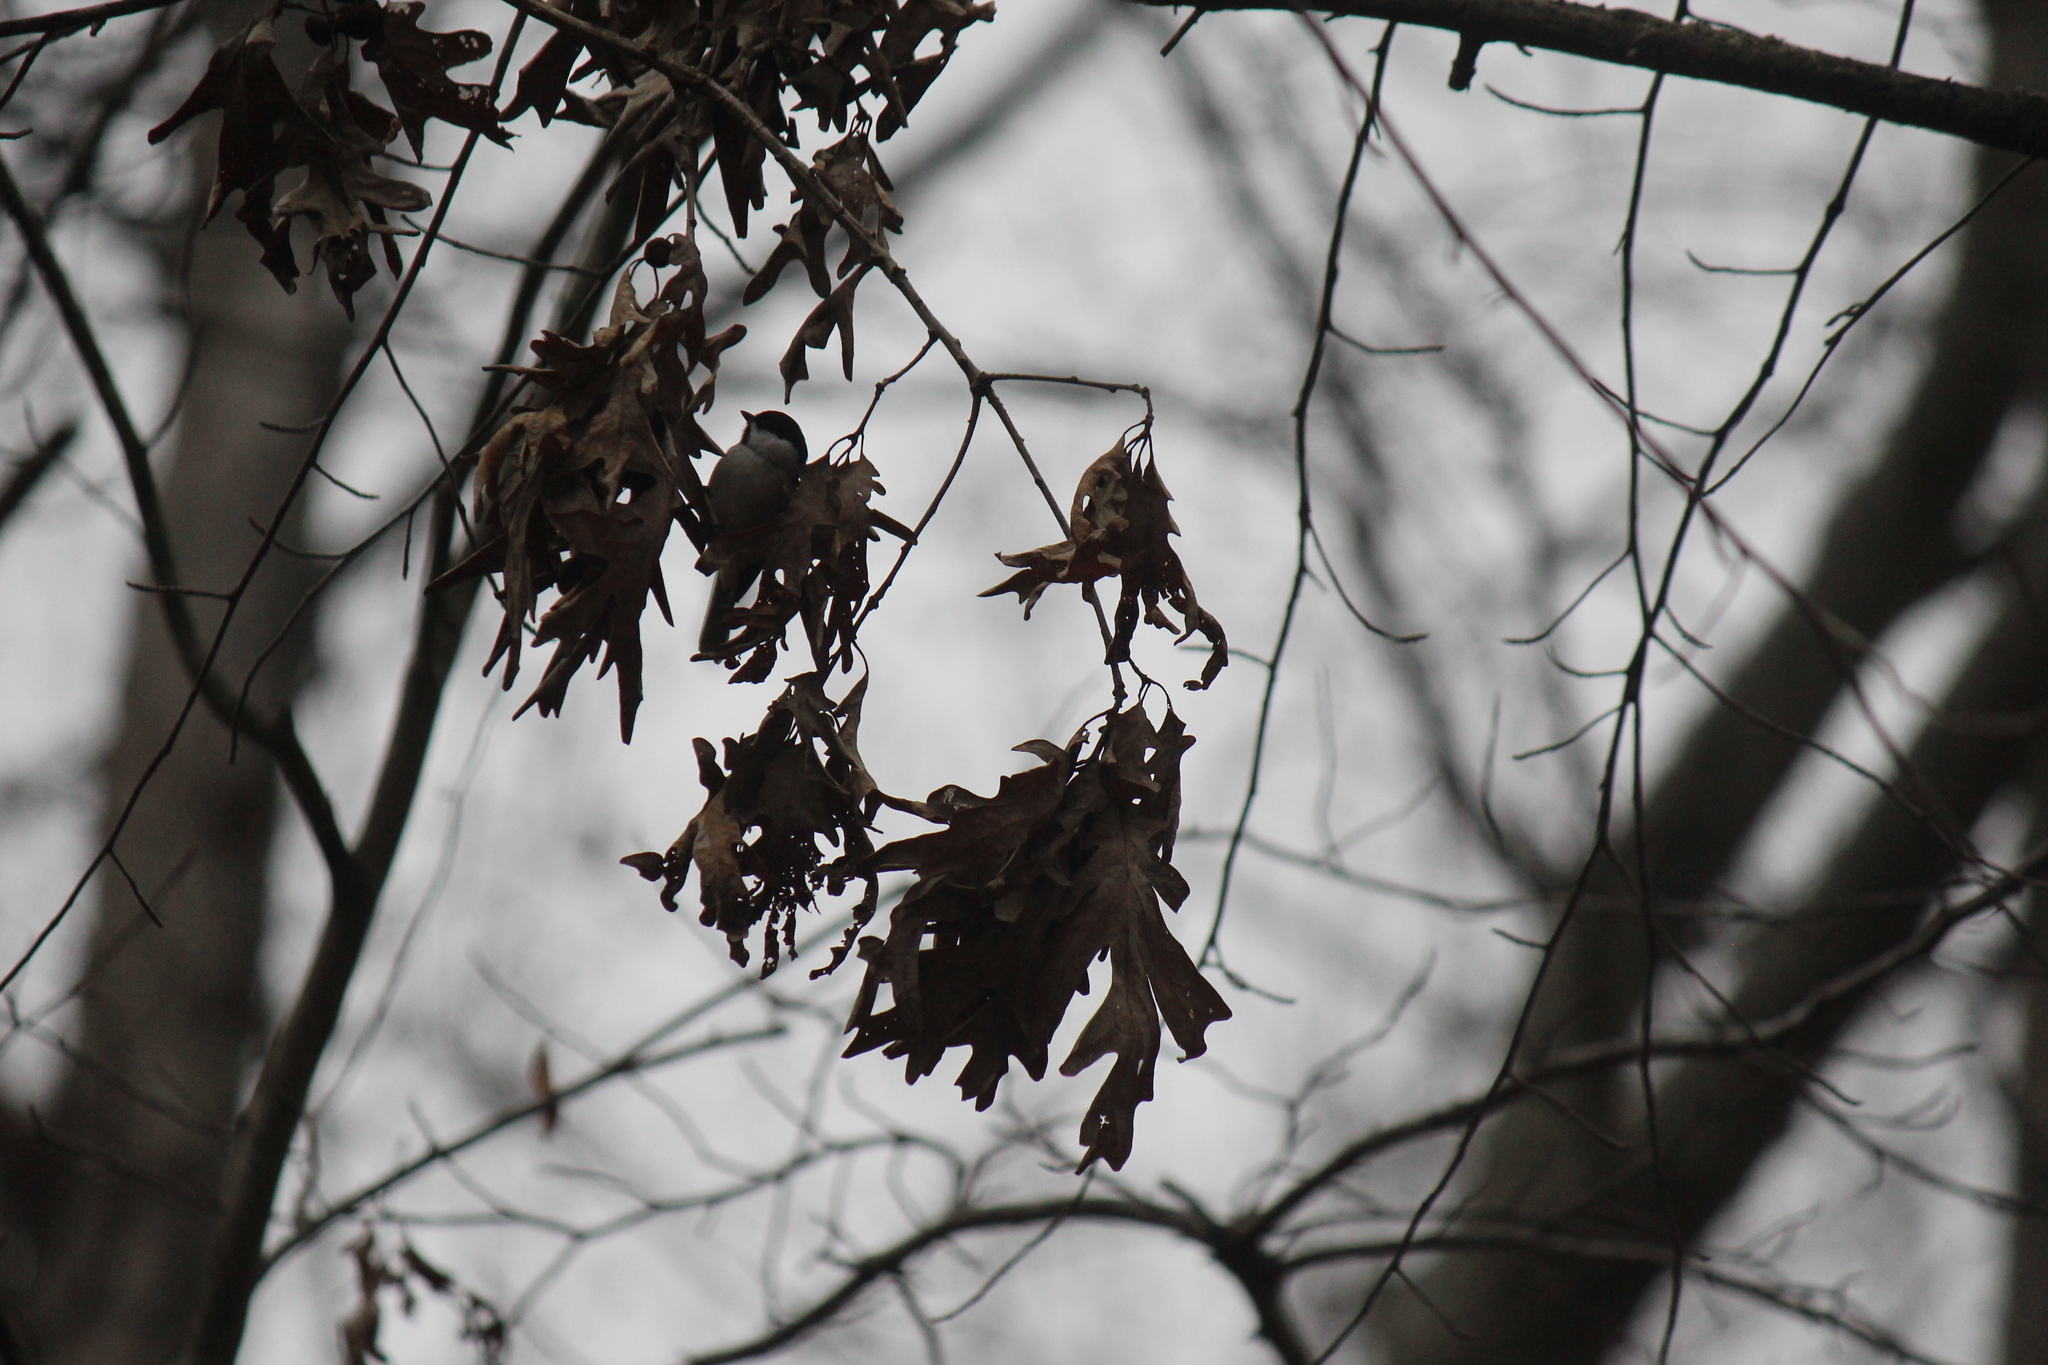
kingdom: Animalia
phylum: Chordata
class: Aves
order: Passeriformes
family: Paridae
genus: Poecile
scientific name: Poecile carolinensis
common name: Carolina chickadee
